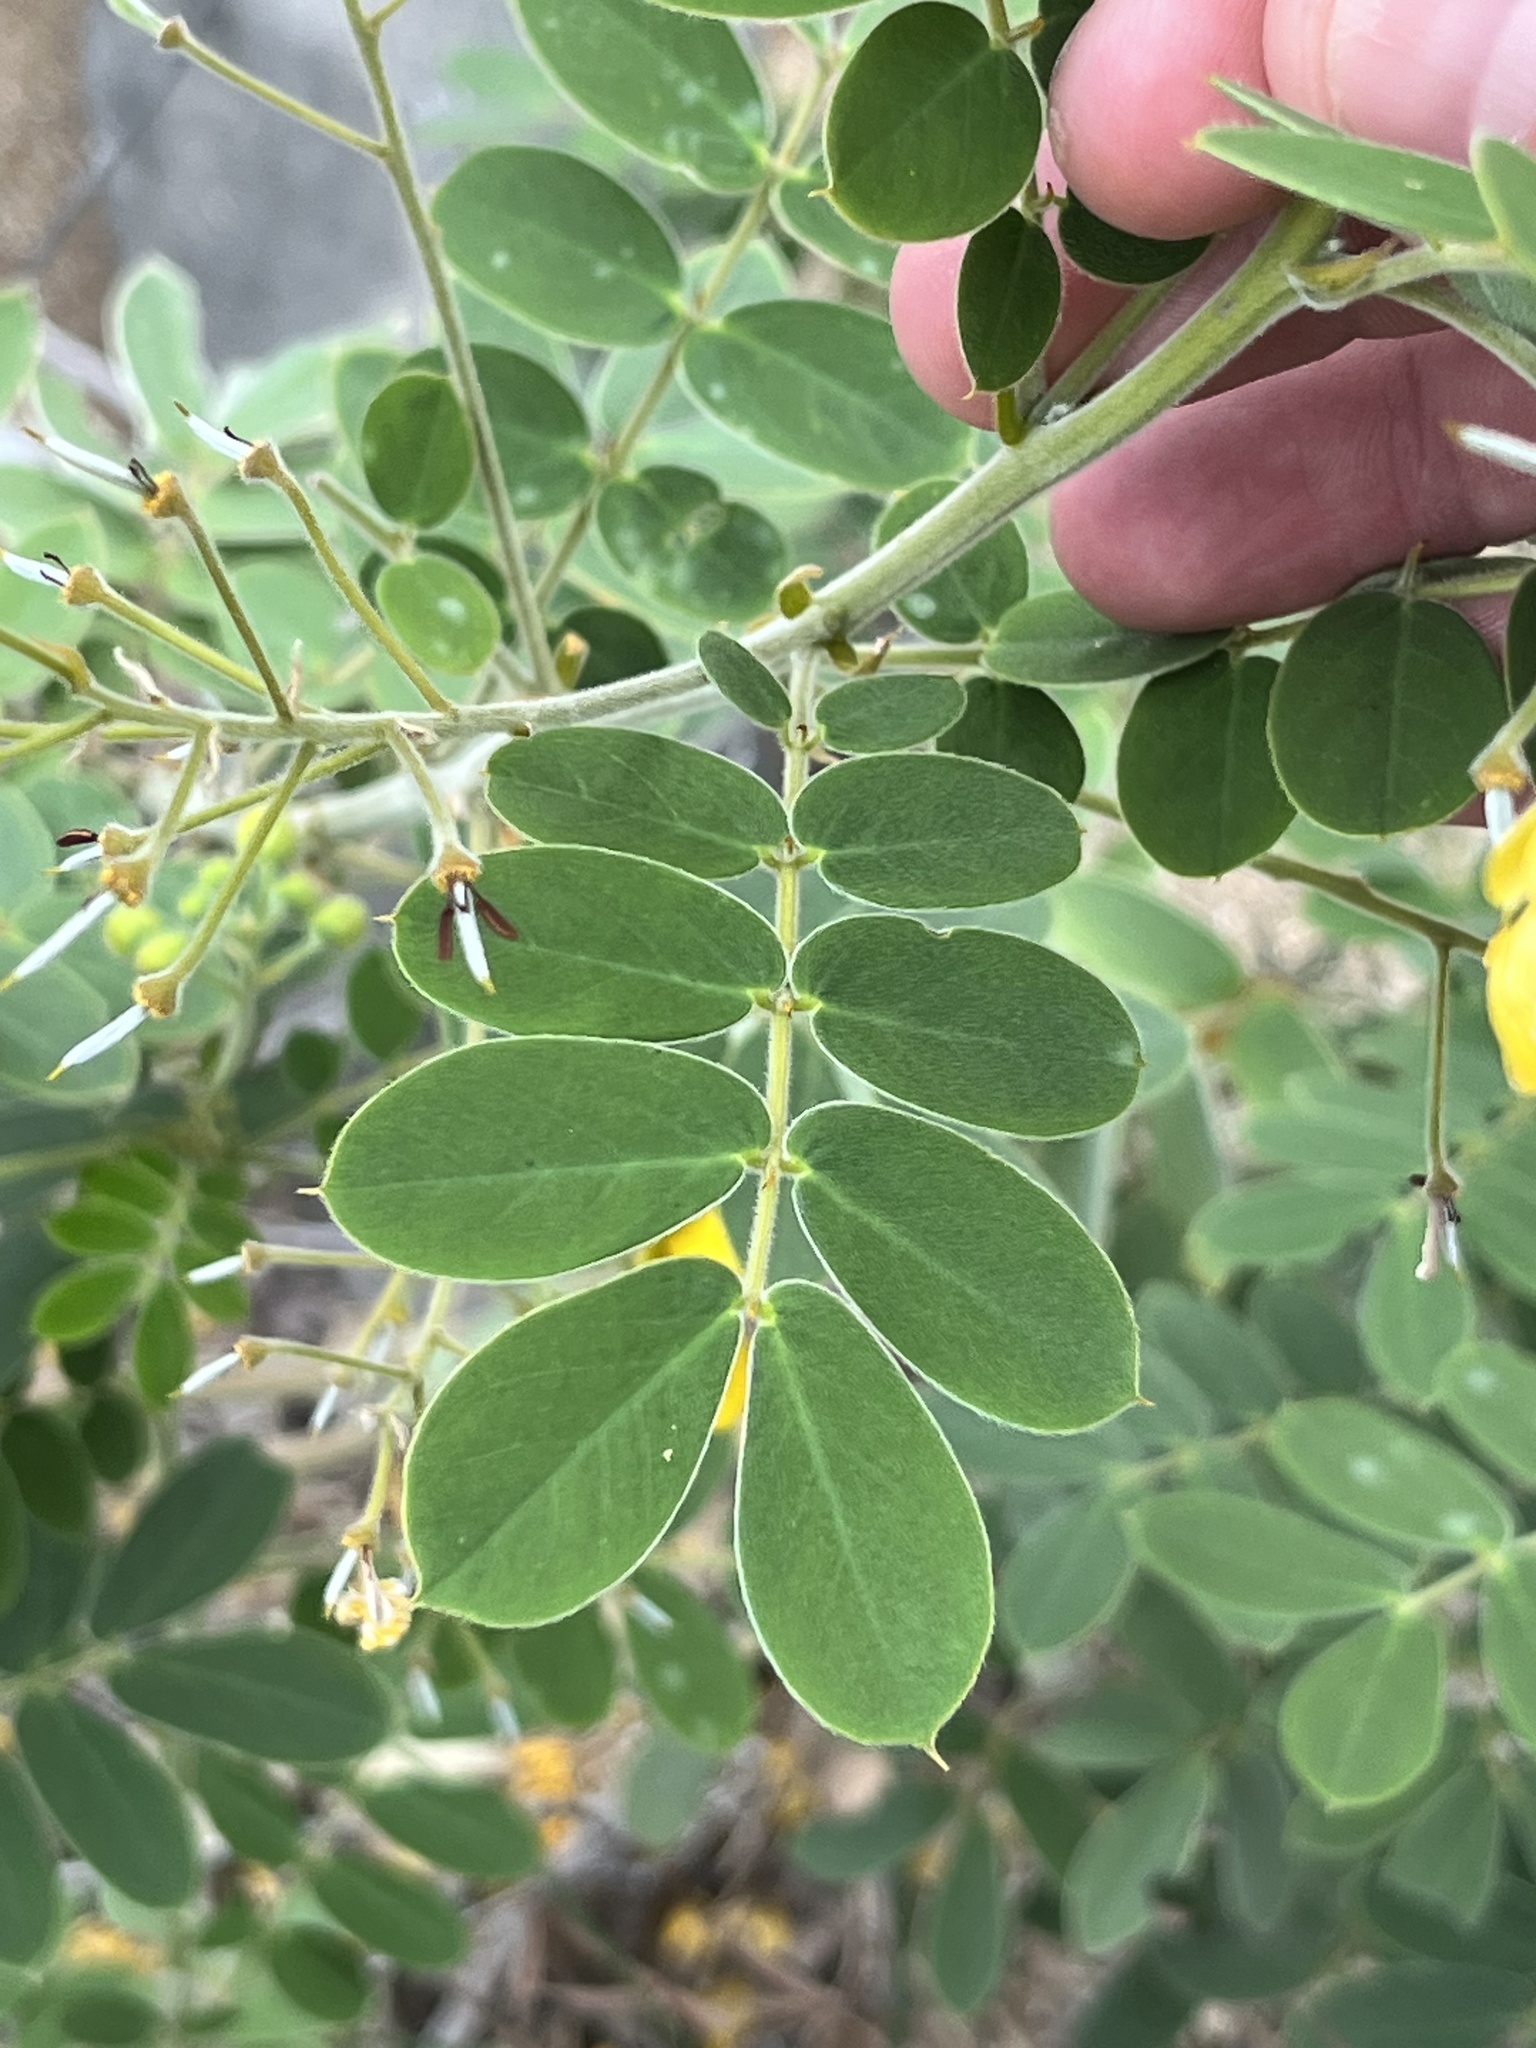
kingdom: Plantae
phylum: Tracheophyta
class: Magnoliopsida
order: Fabales
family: Fabaceae
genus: Senna
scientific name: Senna lindheimeriana
